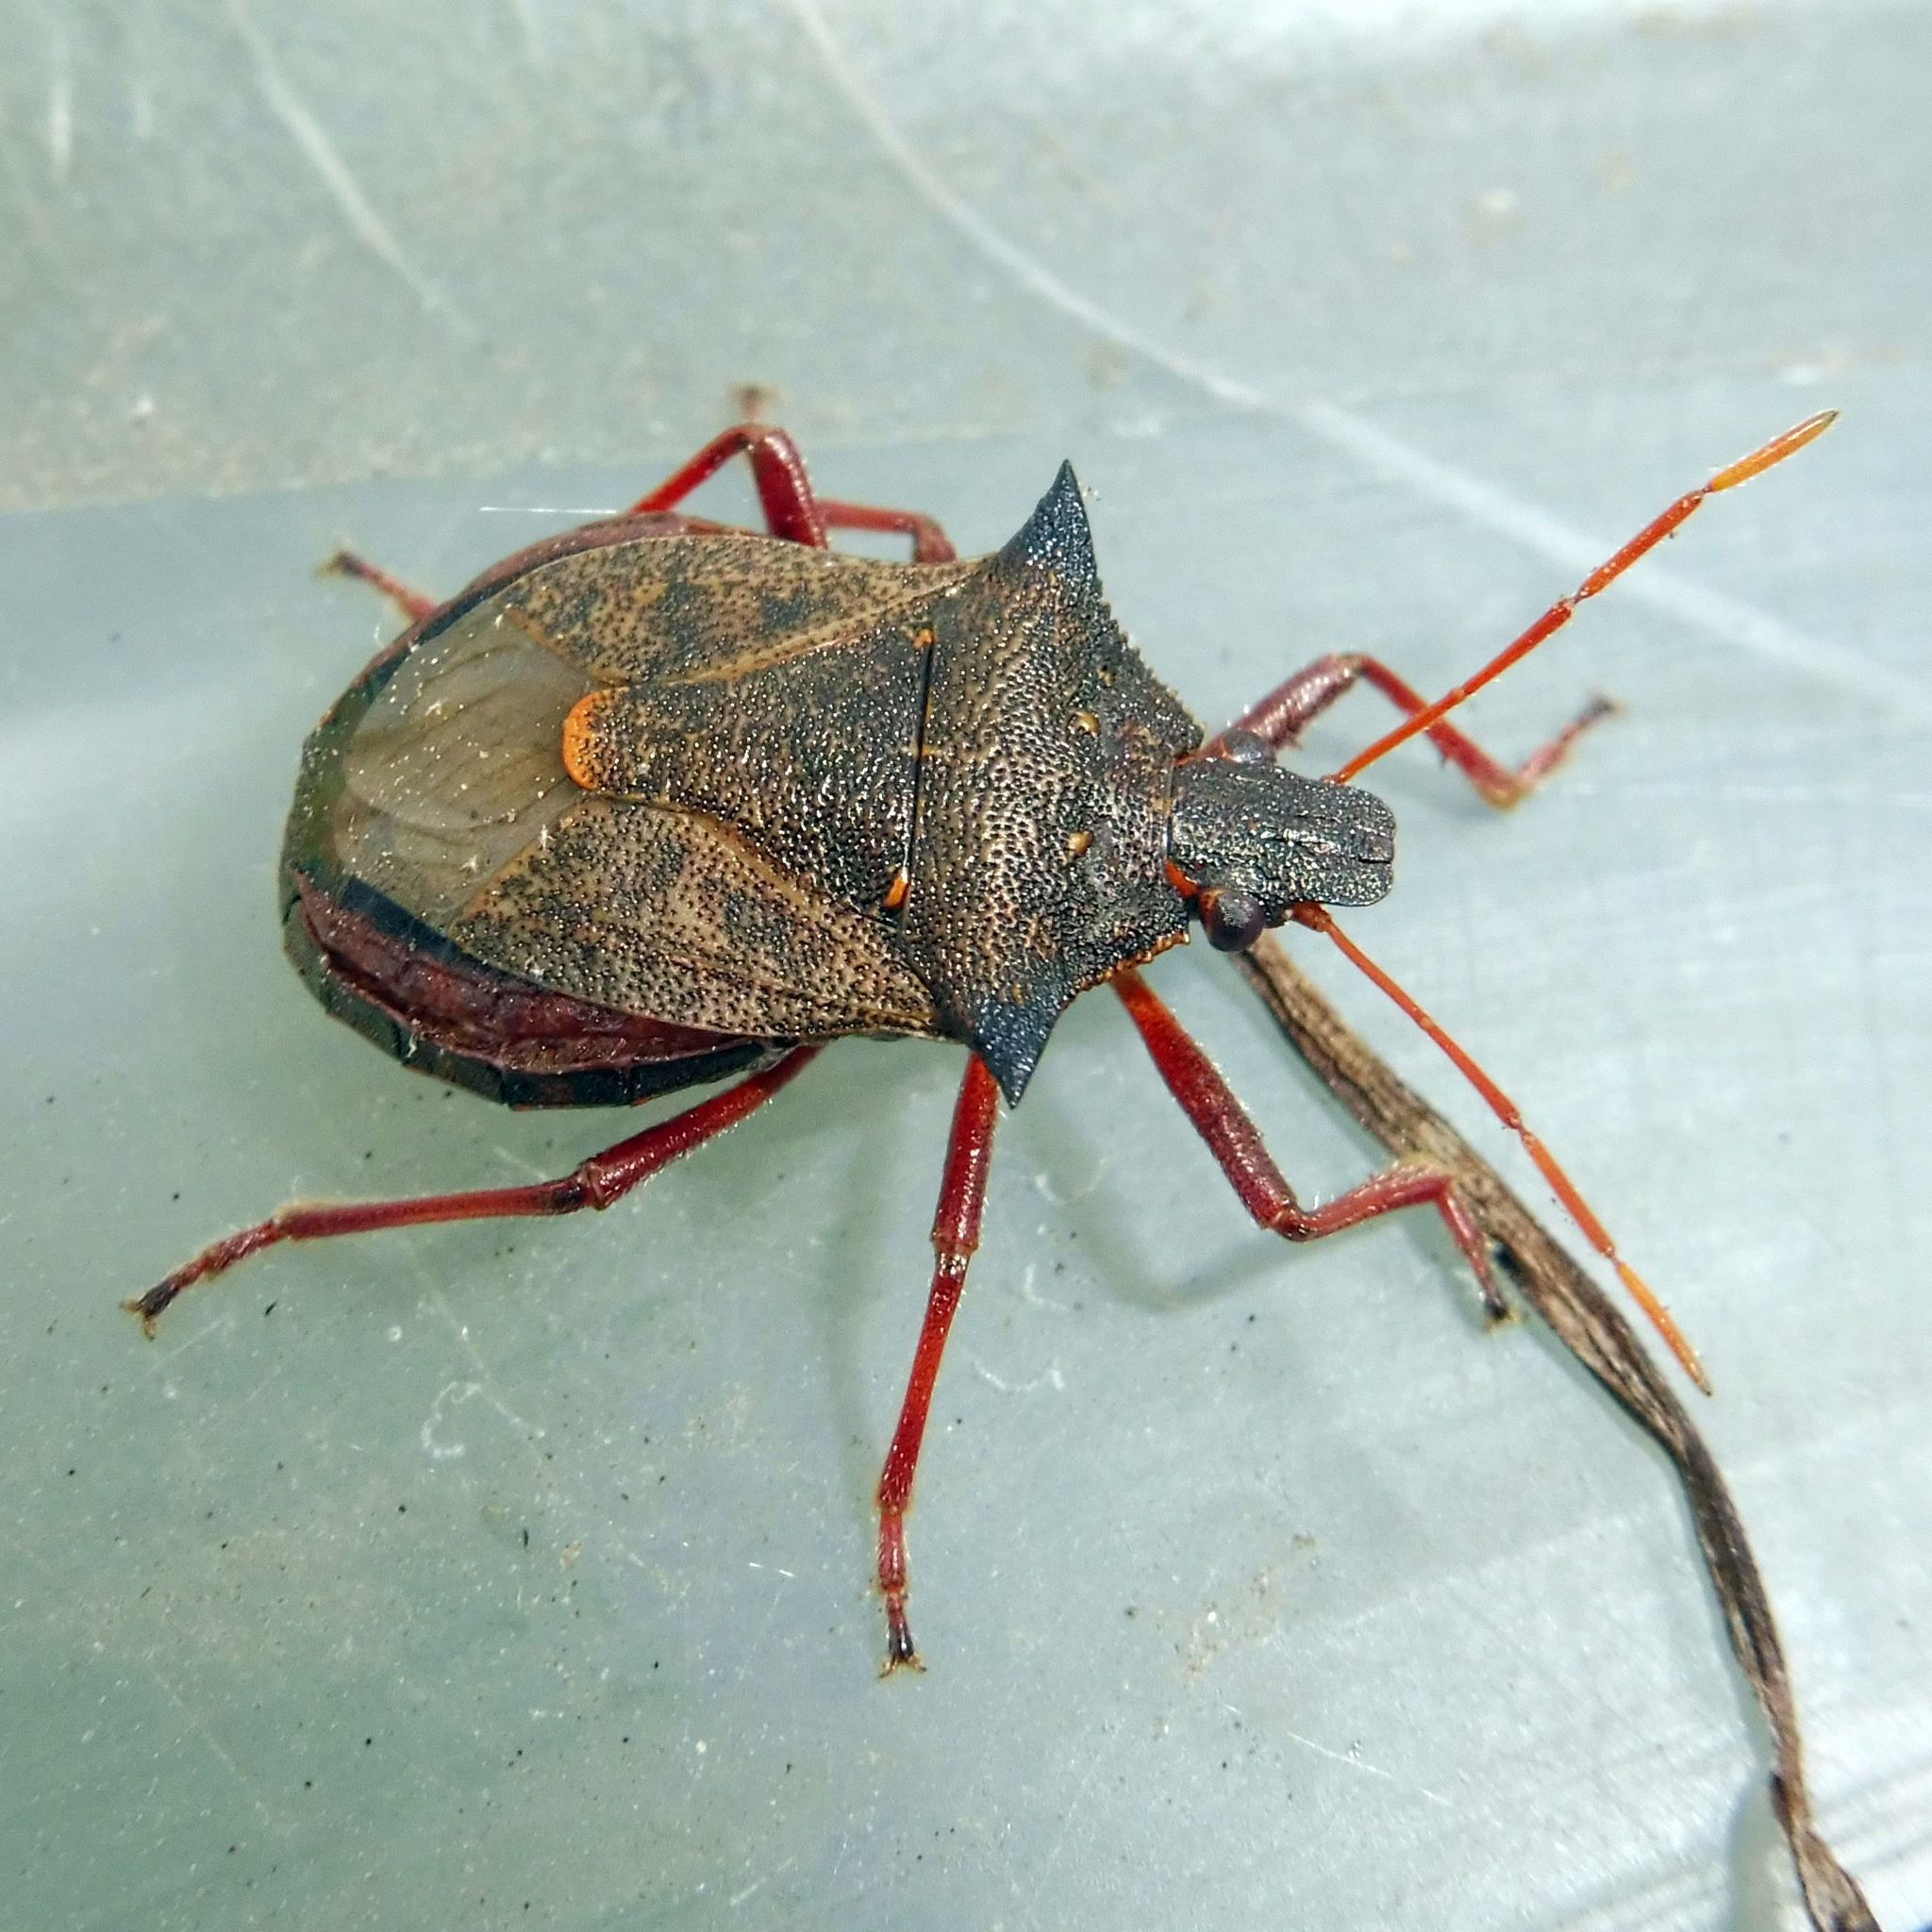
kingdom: Animalia
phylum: Arthropoda
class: Insecta
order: Hemiptera
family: Pentatomidae
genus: Picromerus
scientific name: Picromerus bidens
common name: Spiked shieldbug
